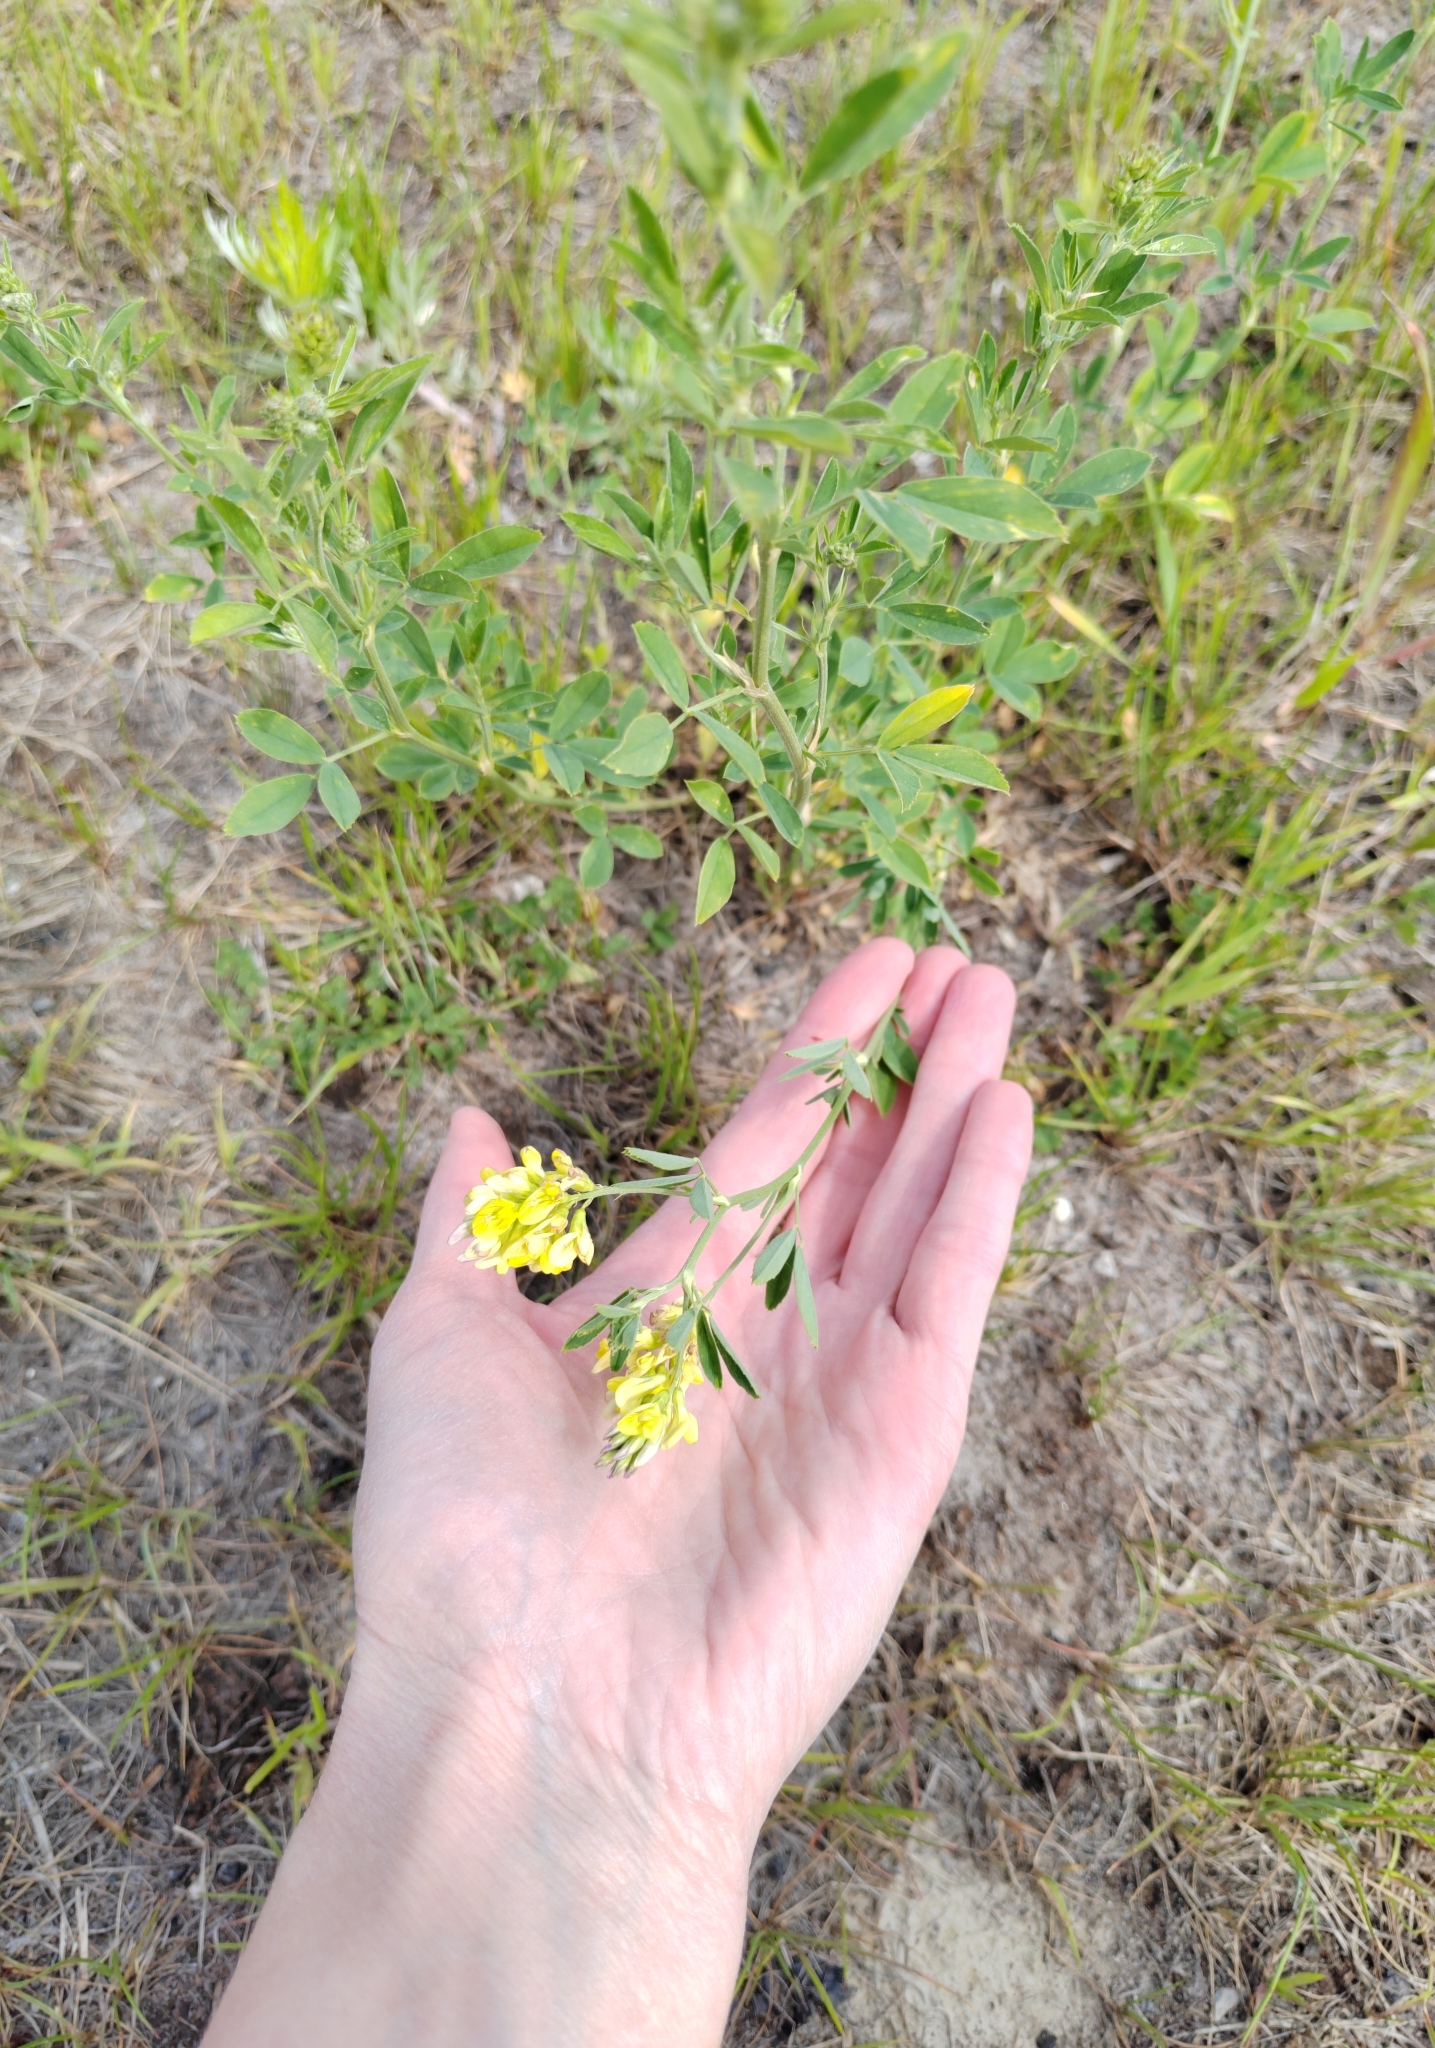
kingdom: Plantae
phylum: Tracheophyta
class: Magnoliopsida
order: Fabales
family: Fabaceae
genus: Medicago
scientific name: Medicago falcata
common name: Sickle medick
